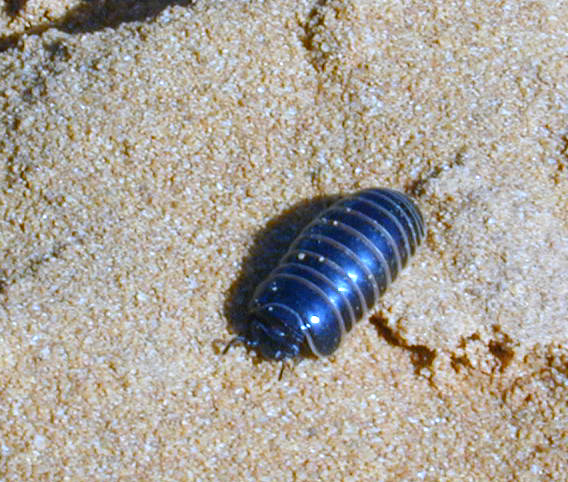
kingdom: Animalia
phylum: Arthropoda
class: Diplopoda
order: Glomerida
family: Glomeridae
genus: Glomeris
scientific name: Glomeris marginata
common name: Bordered pill millipede
